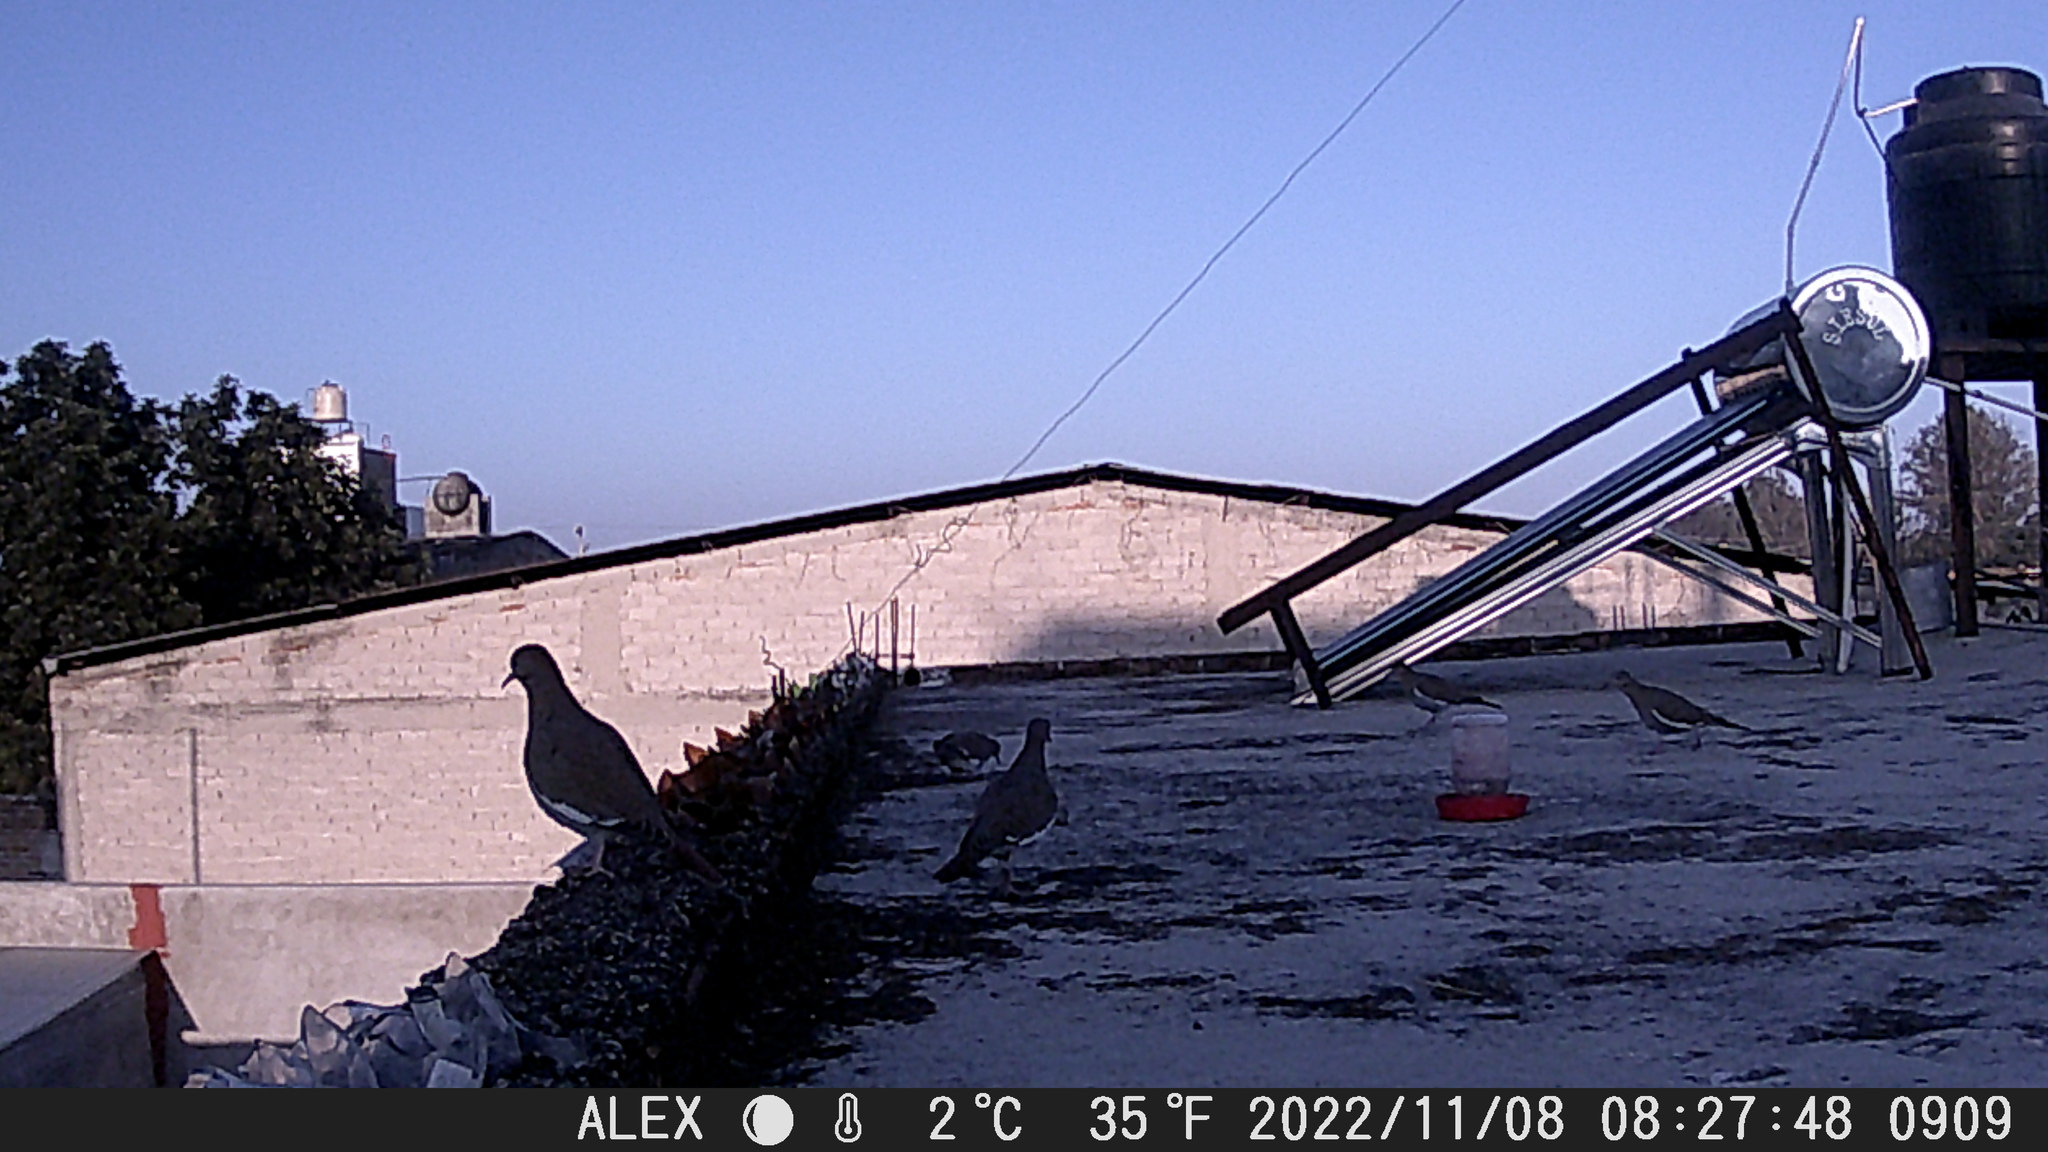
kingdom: Animalia
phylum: Chordata
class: Aves
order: Columbiformes
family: Columbidae
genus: Zenaida
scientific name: Zenaida asiatica
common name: White-winged dove
